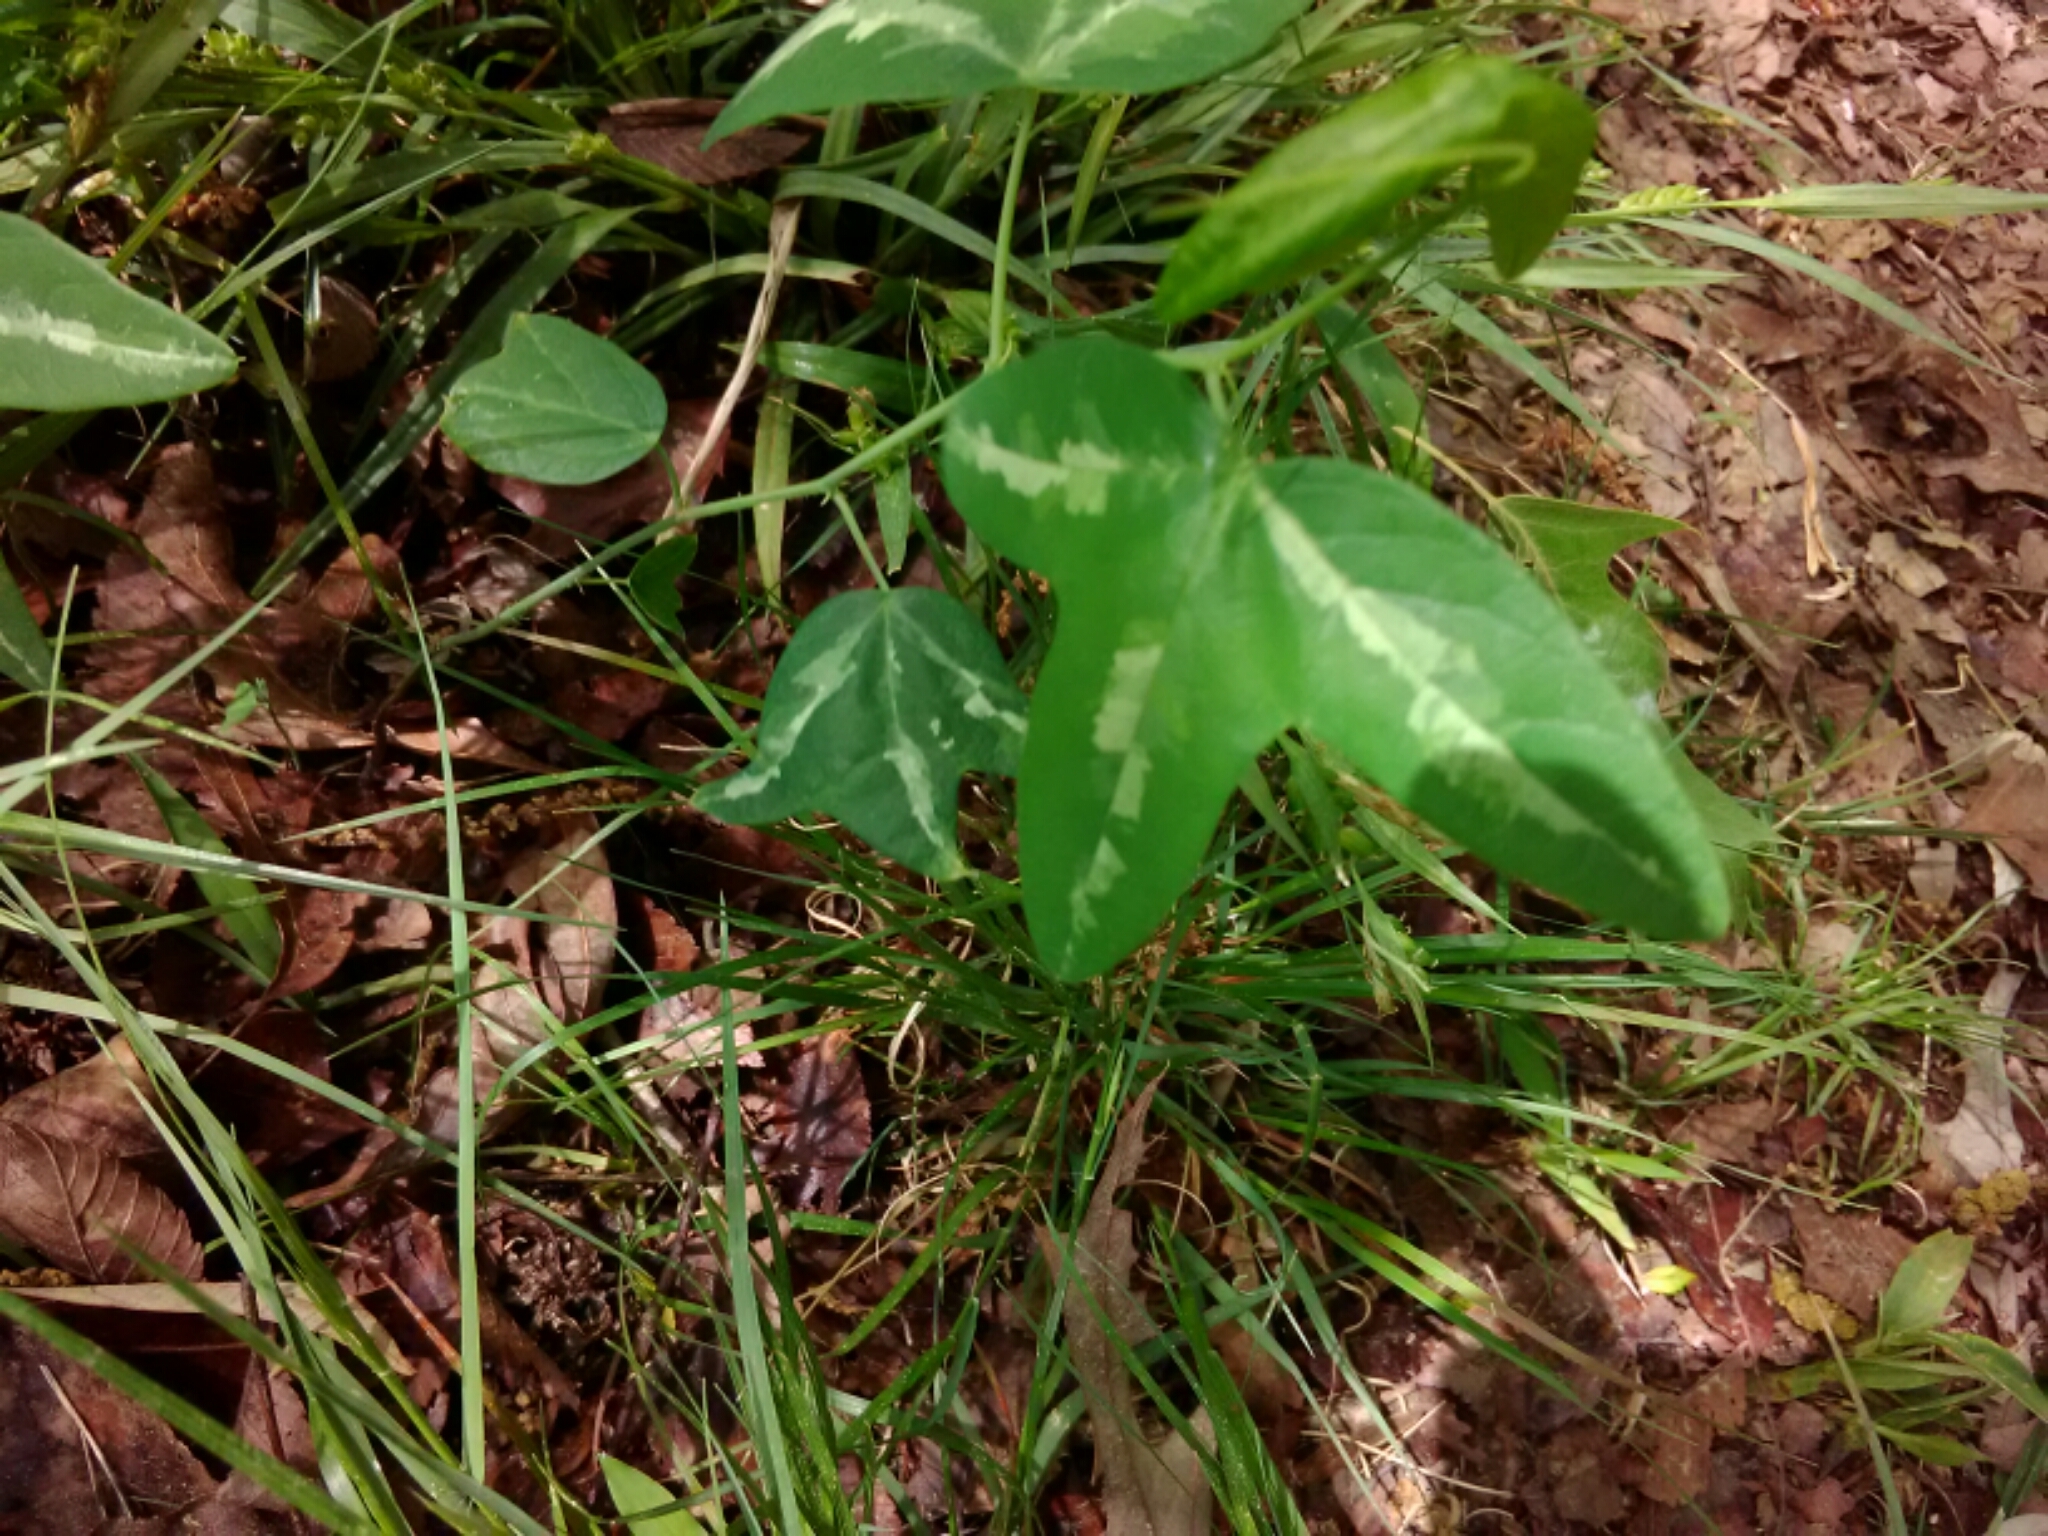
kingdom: Plantae
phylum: Tracheophyta
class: Magnoliopsida
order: Malpighiales
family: Passifloraceae
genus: Passiflora
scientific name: Passiflora lutea
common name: Yellow passionflower
